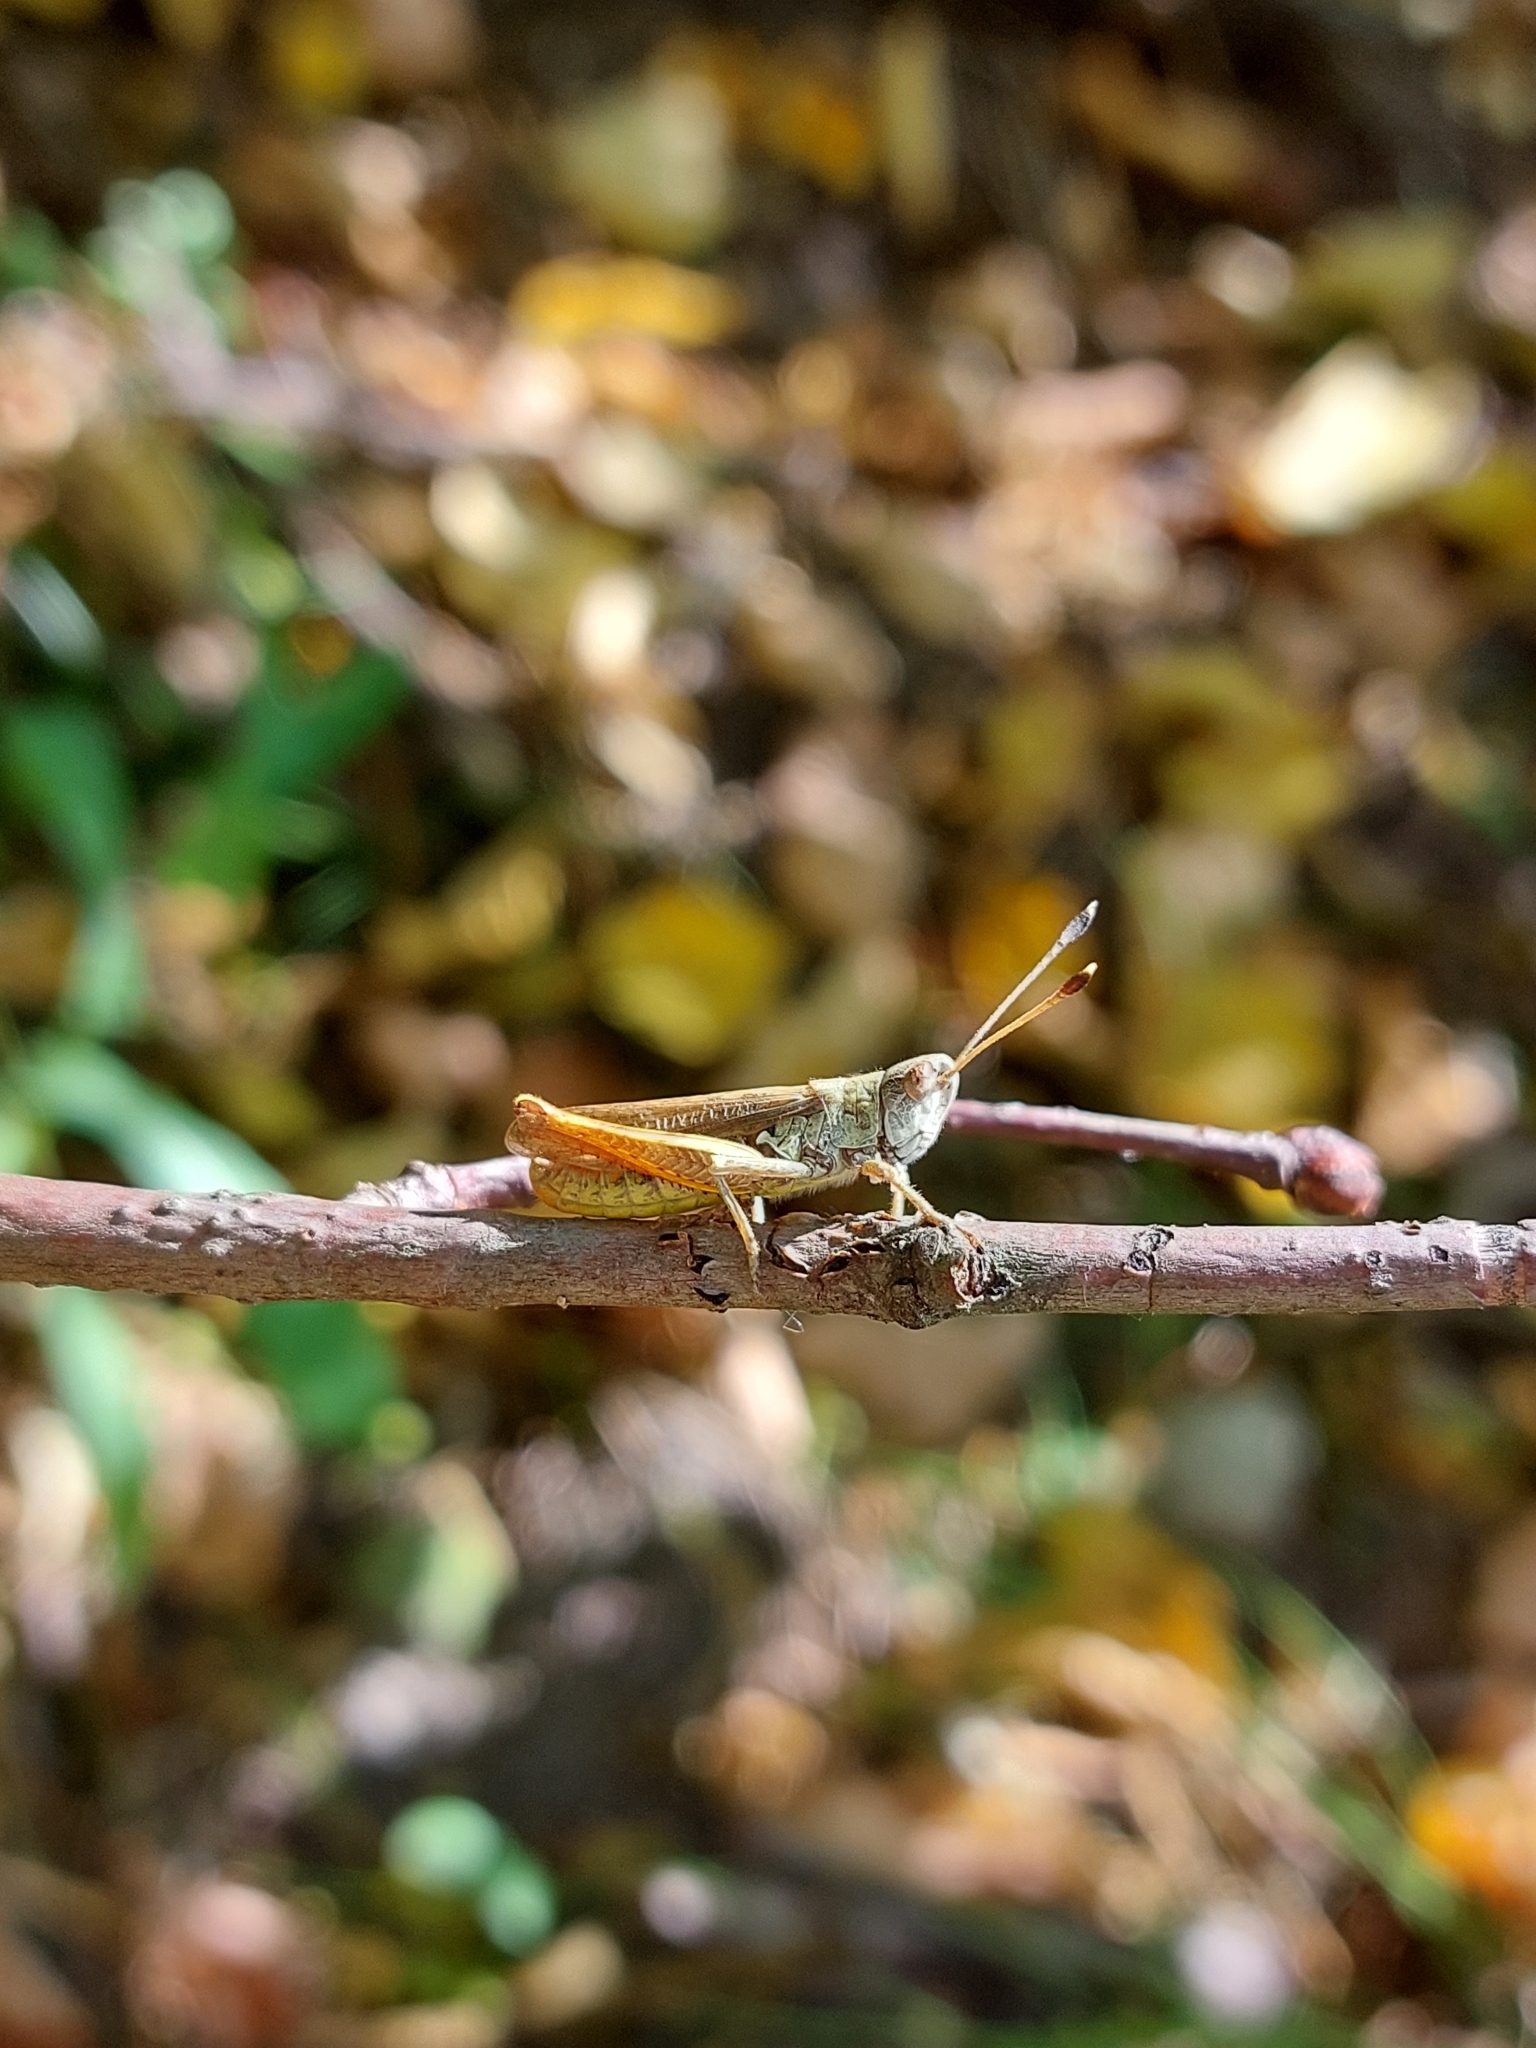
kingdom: Animalia
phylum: Arthropoda
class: Insecta
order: Orthoptera
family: Acrididae
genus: Gomphocerippus
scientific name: Gomphocerippus rufus
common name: Rufous grasshopper
